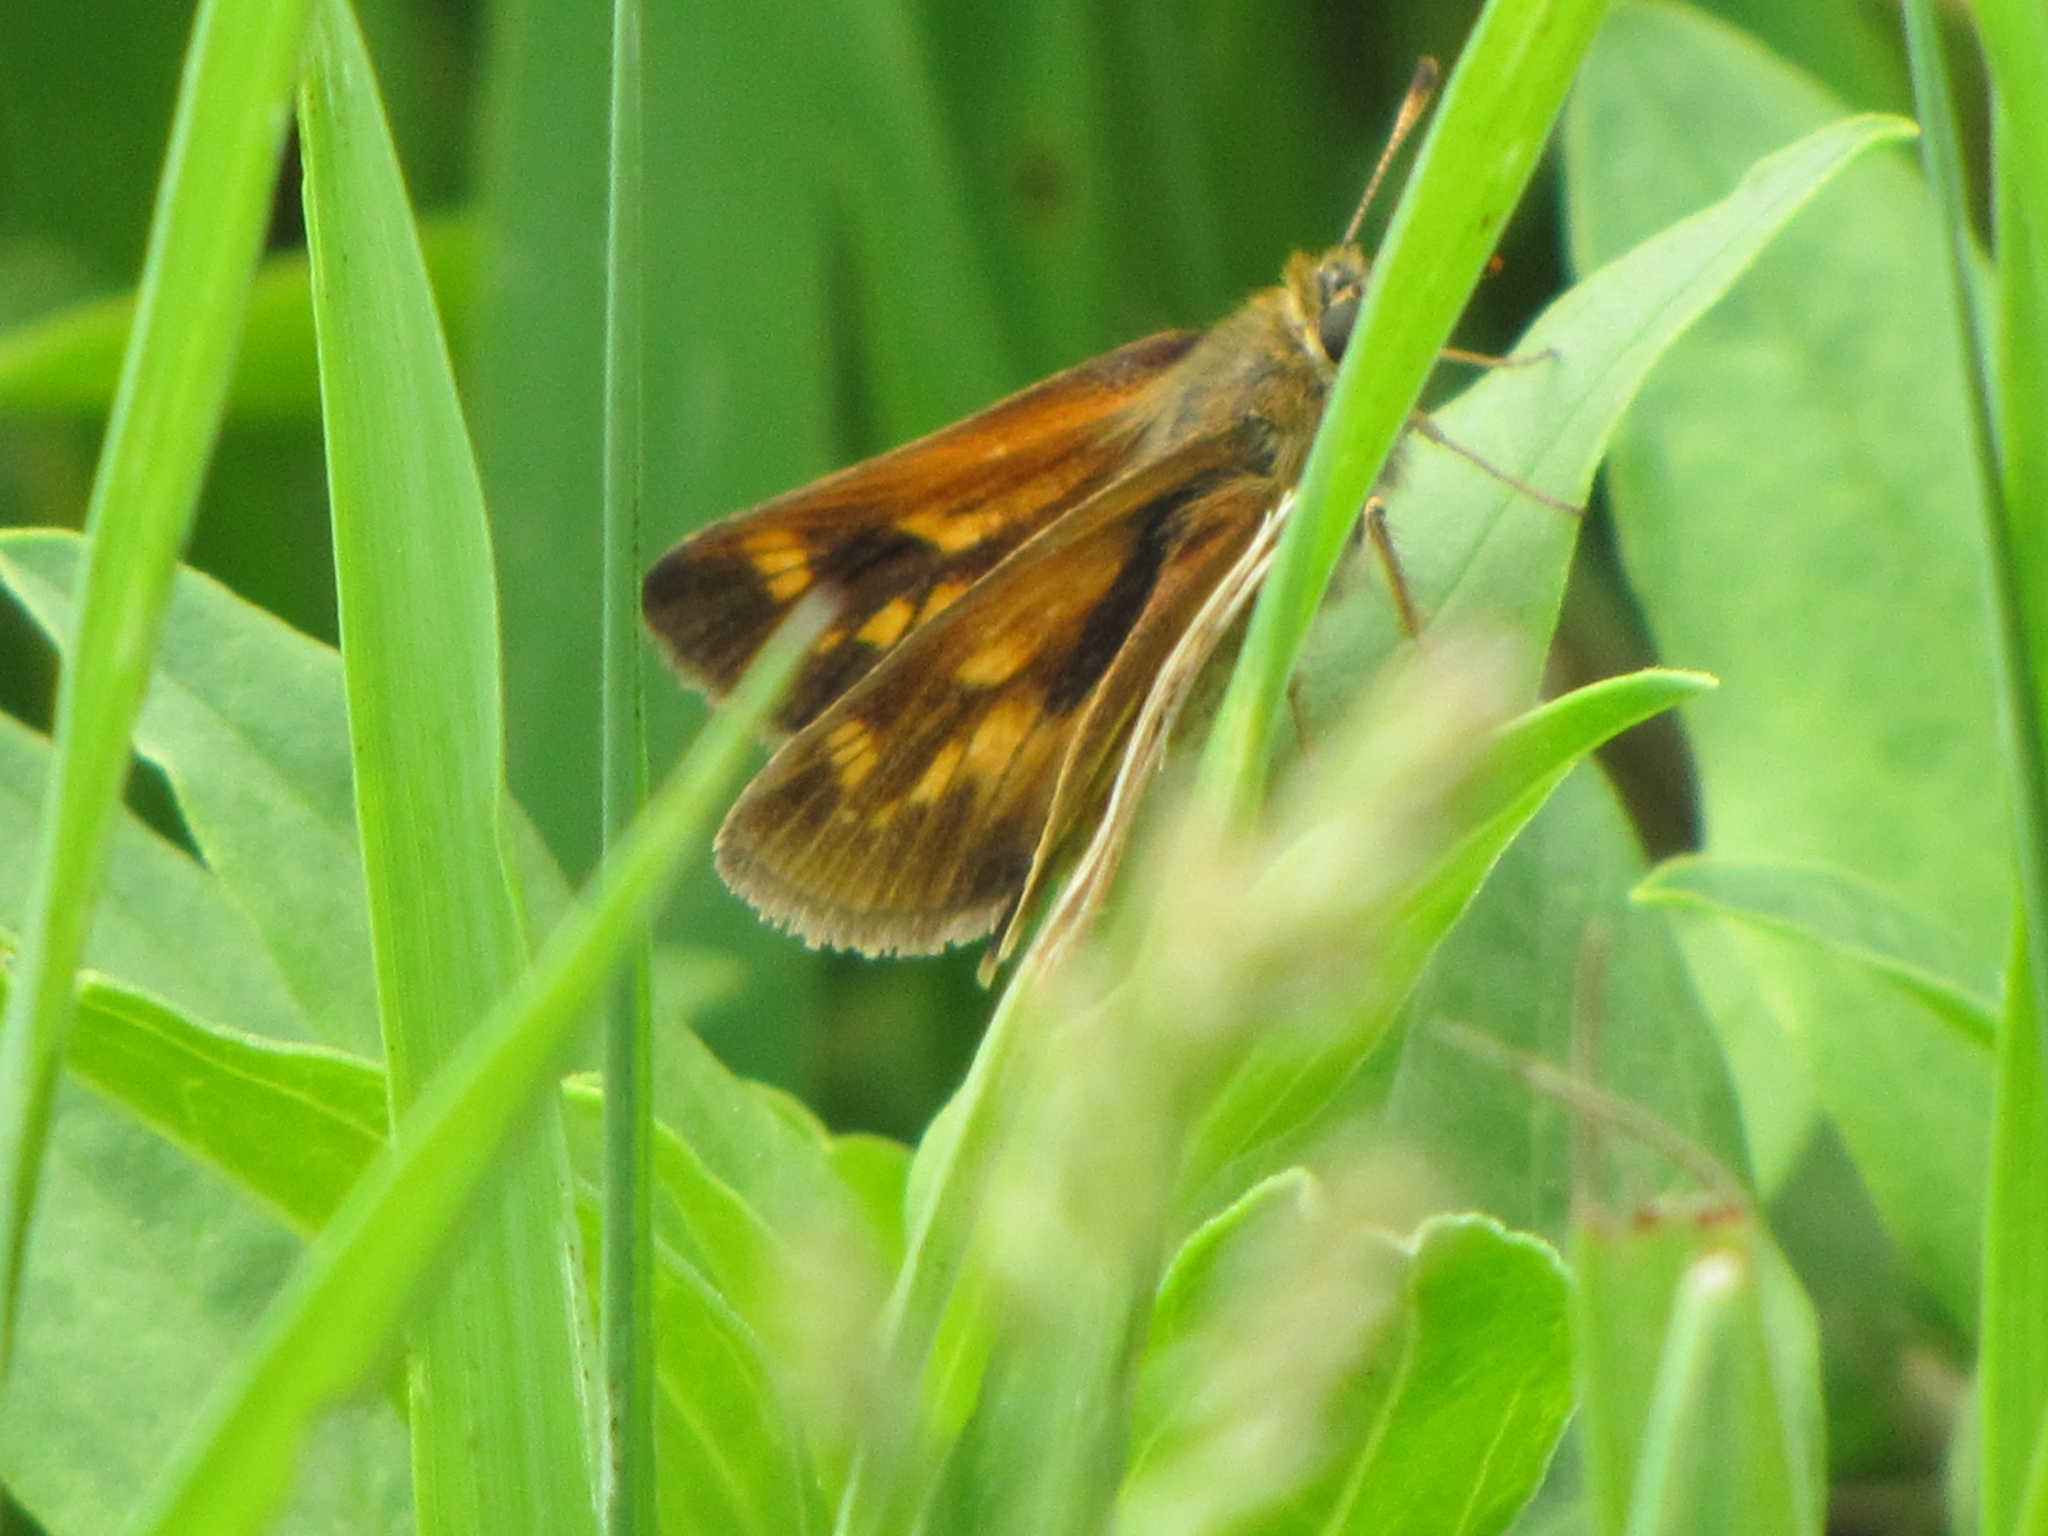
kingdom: Animalia
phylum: Arthropoda
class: Insecta
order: Lepidoptera
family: Hesperiidae
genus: Polites
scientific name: Polites mystic
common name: Long dash
